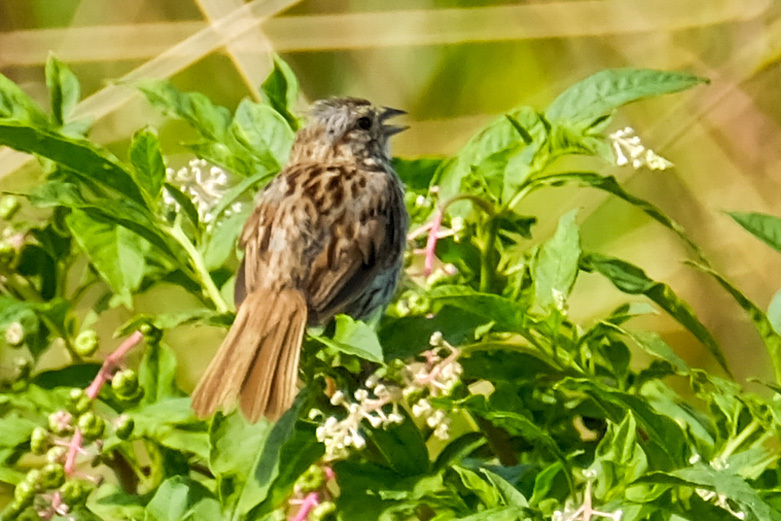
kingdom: Animalia
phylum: Chordata
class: Aves
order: Passeriformes
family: Passerellidae
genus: Melospiza
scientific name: Melospiza melodia
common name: Song sparrow
